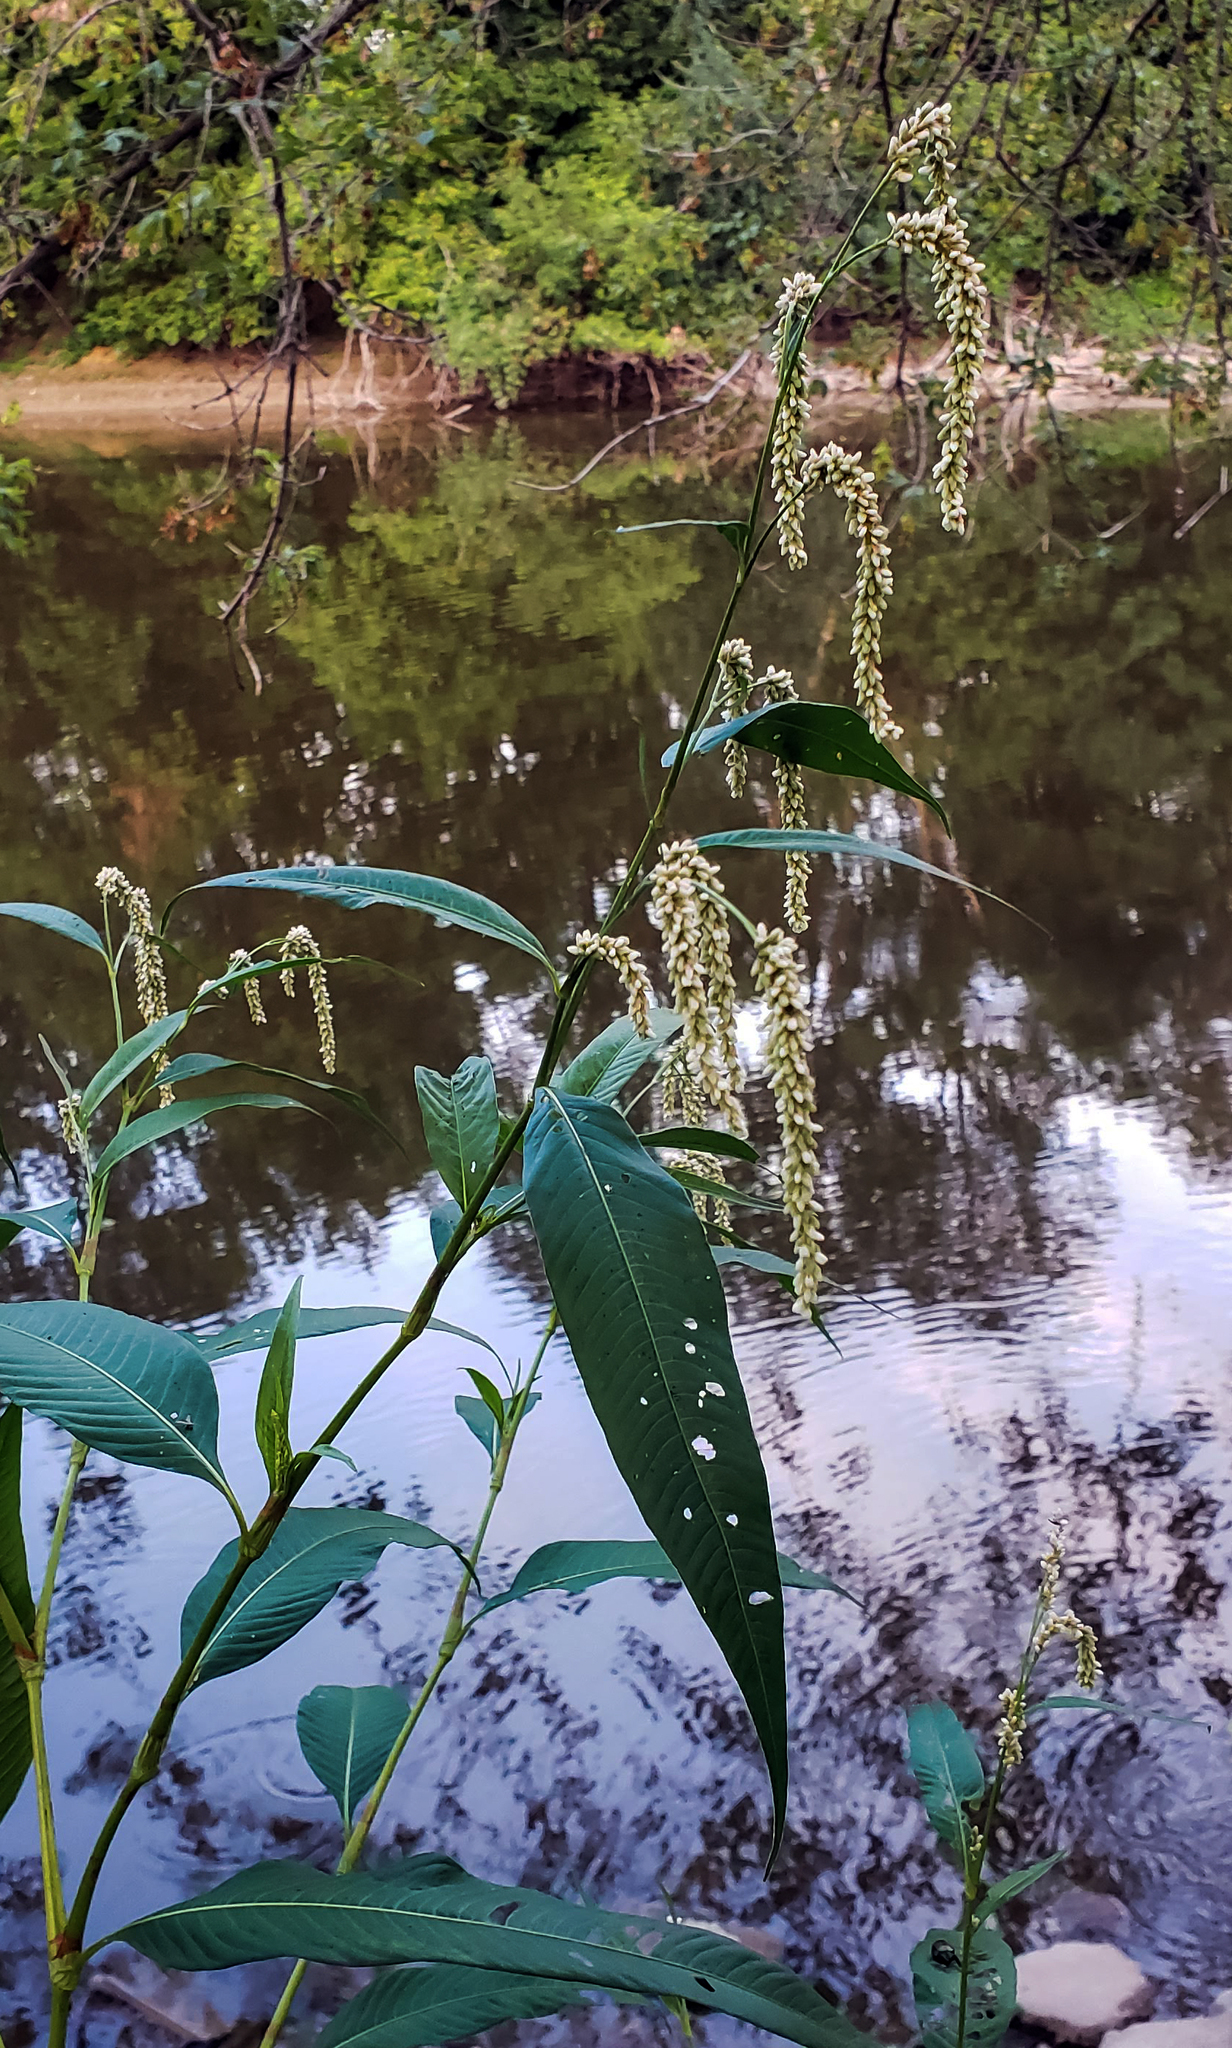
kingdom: Plantae
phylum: Tracheophyta
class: Magnoliopsida
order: Caryophyllales
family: Polygonaceae
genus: Persicaria
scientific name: Persicaria lapathifolia
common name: Curlytop knotweed
